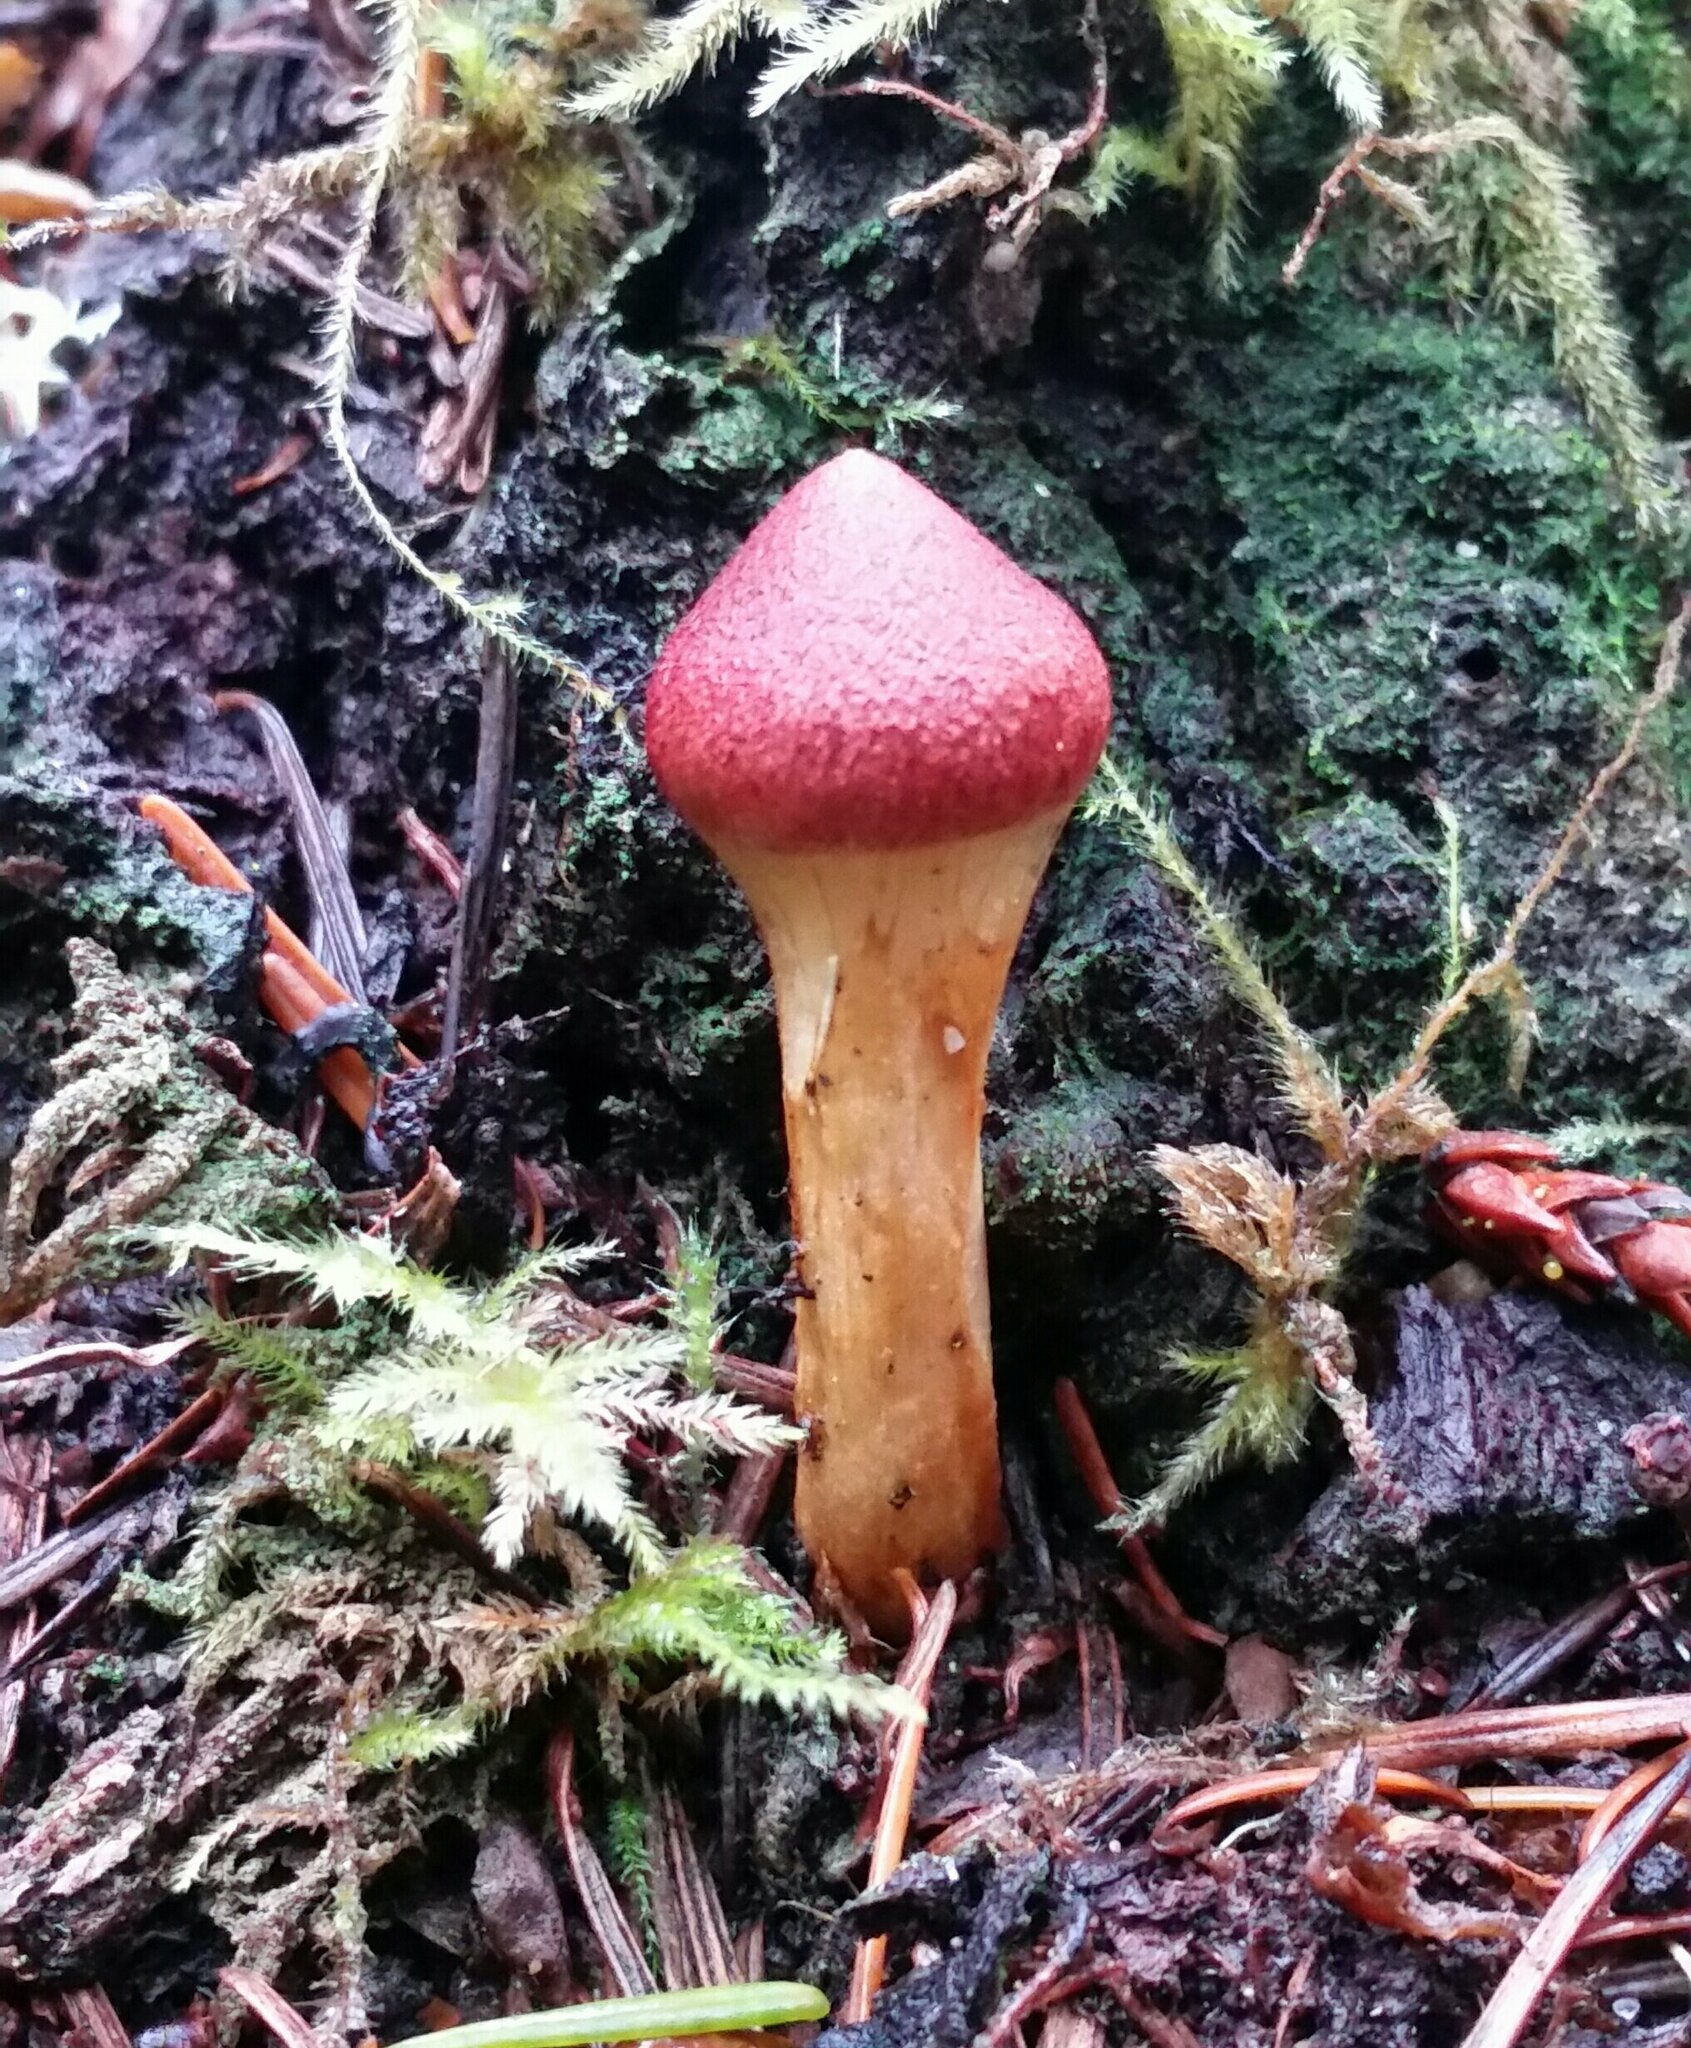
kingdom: Fungi
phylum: Basidiomycota
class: Agaricomycetes
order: Agaricales
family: Cortinariaceae
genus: Cortinarius
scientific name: Cortinarius smithii
